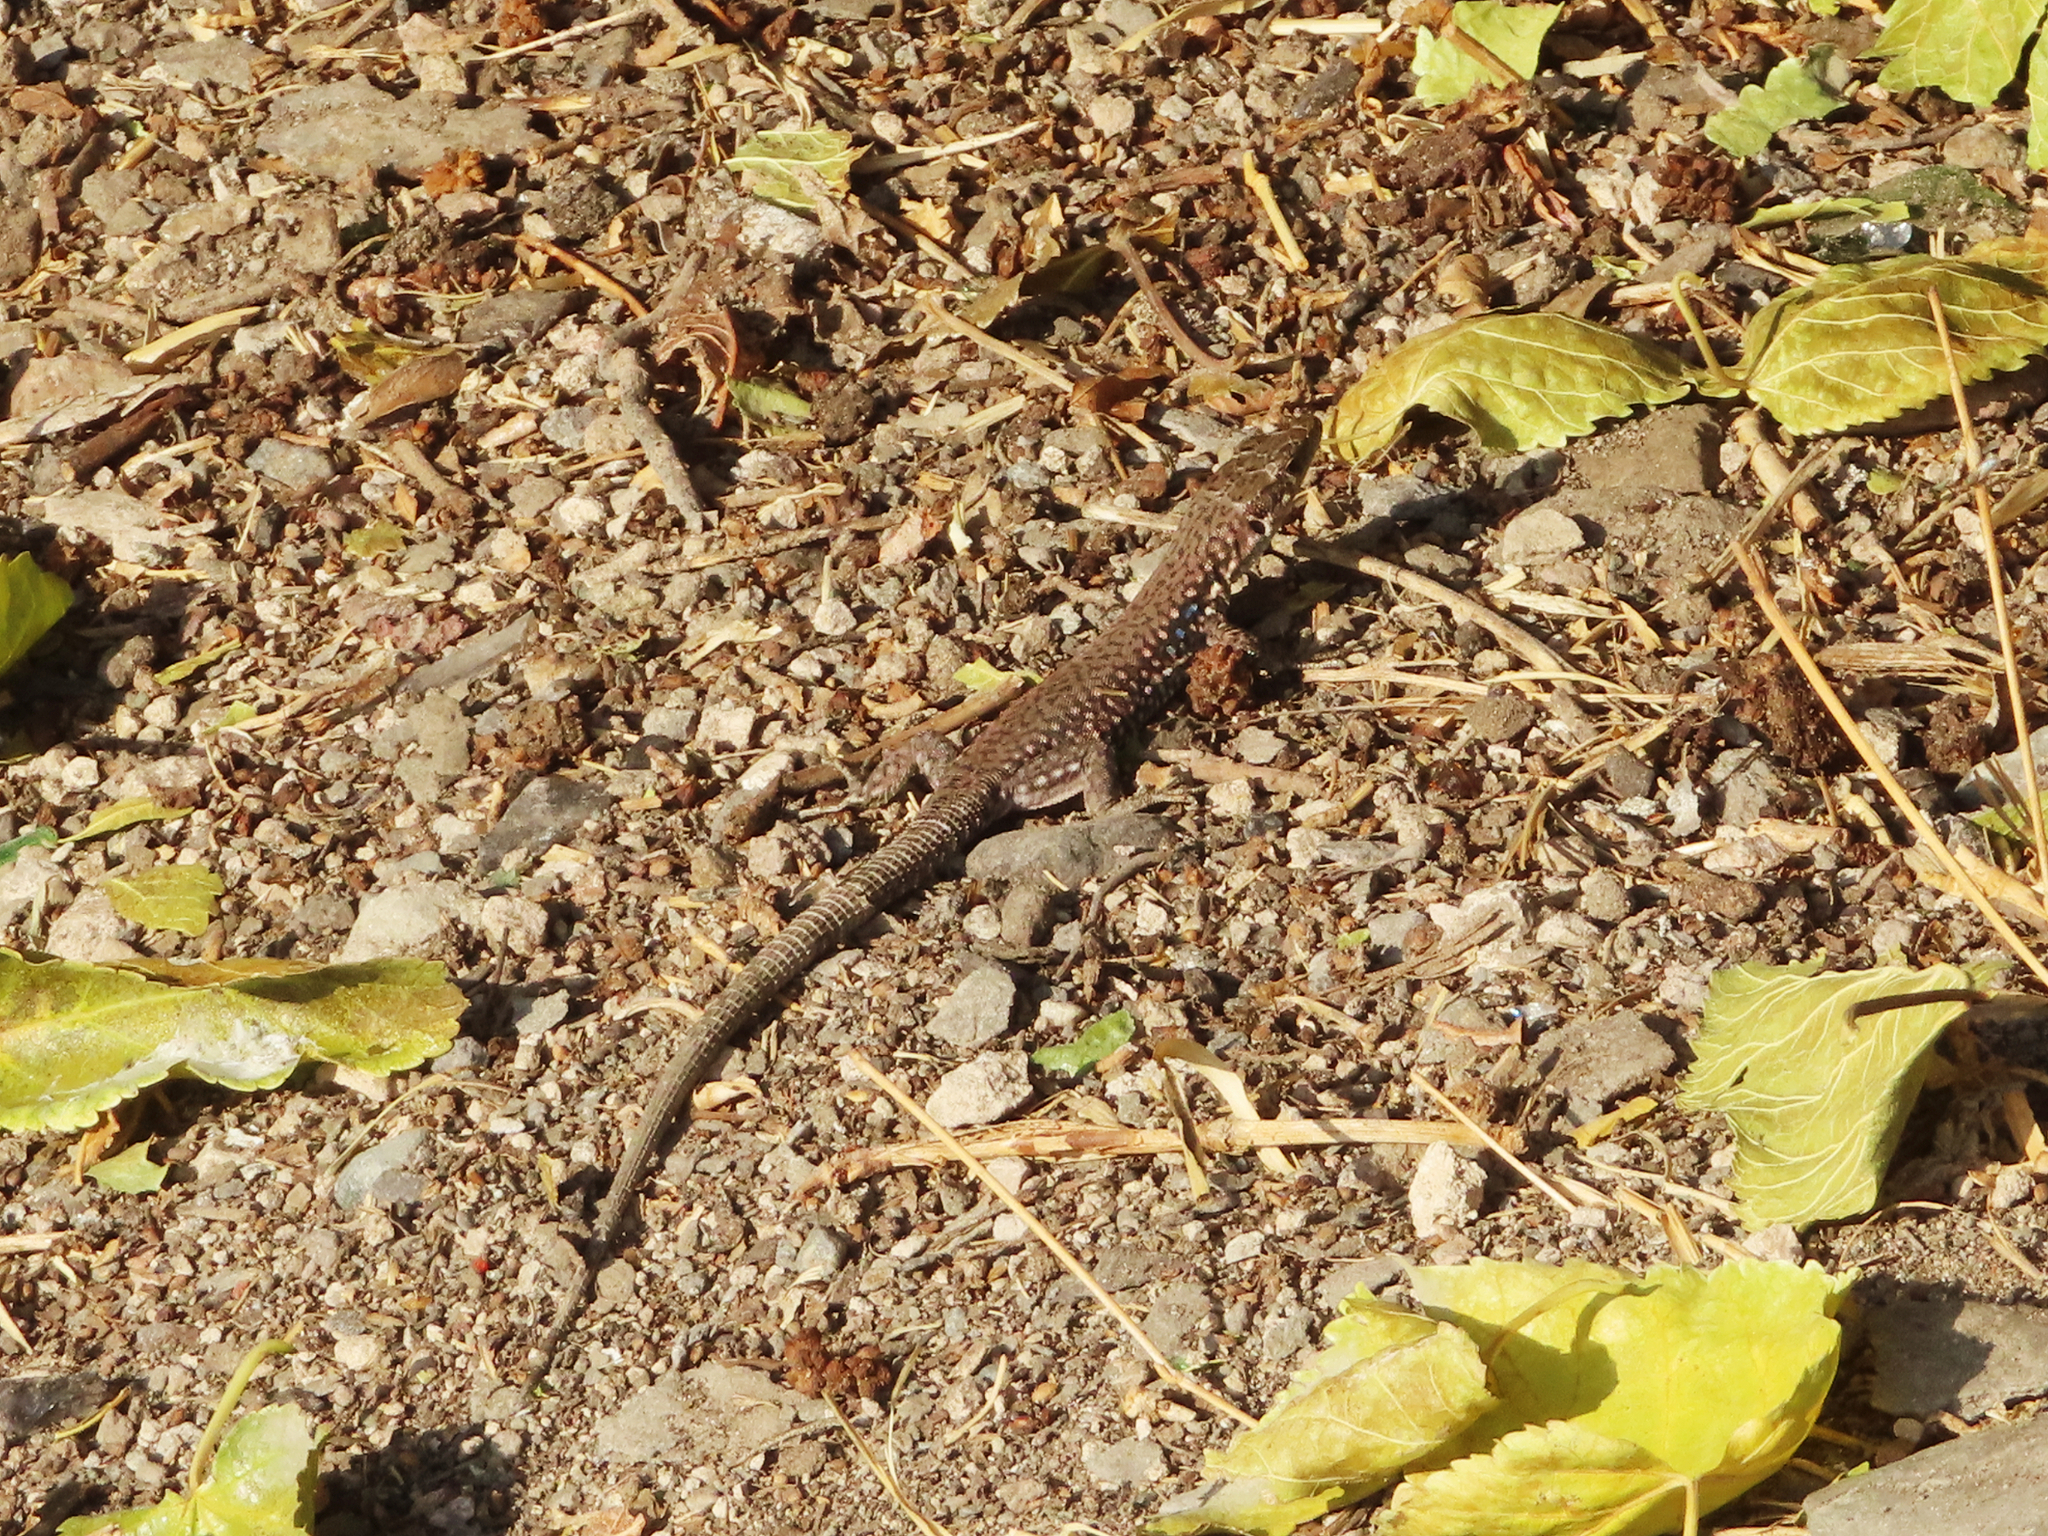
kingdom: Animalia
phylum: Chordata
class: Squamata
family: Lacertidae
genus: Darevskia
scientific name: Darevskia
